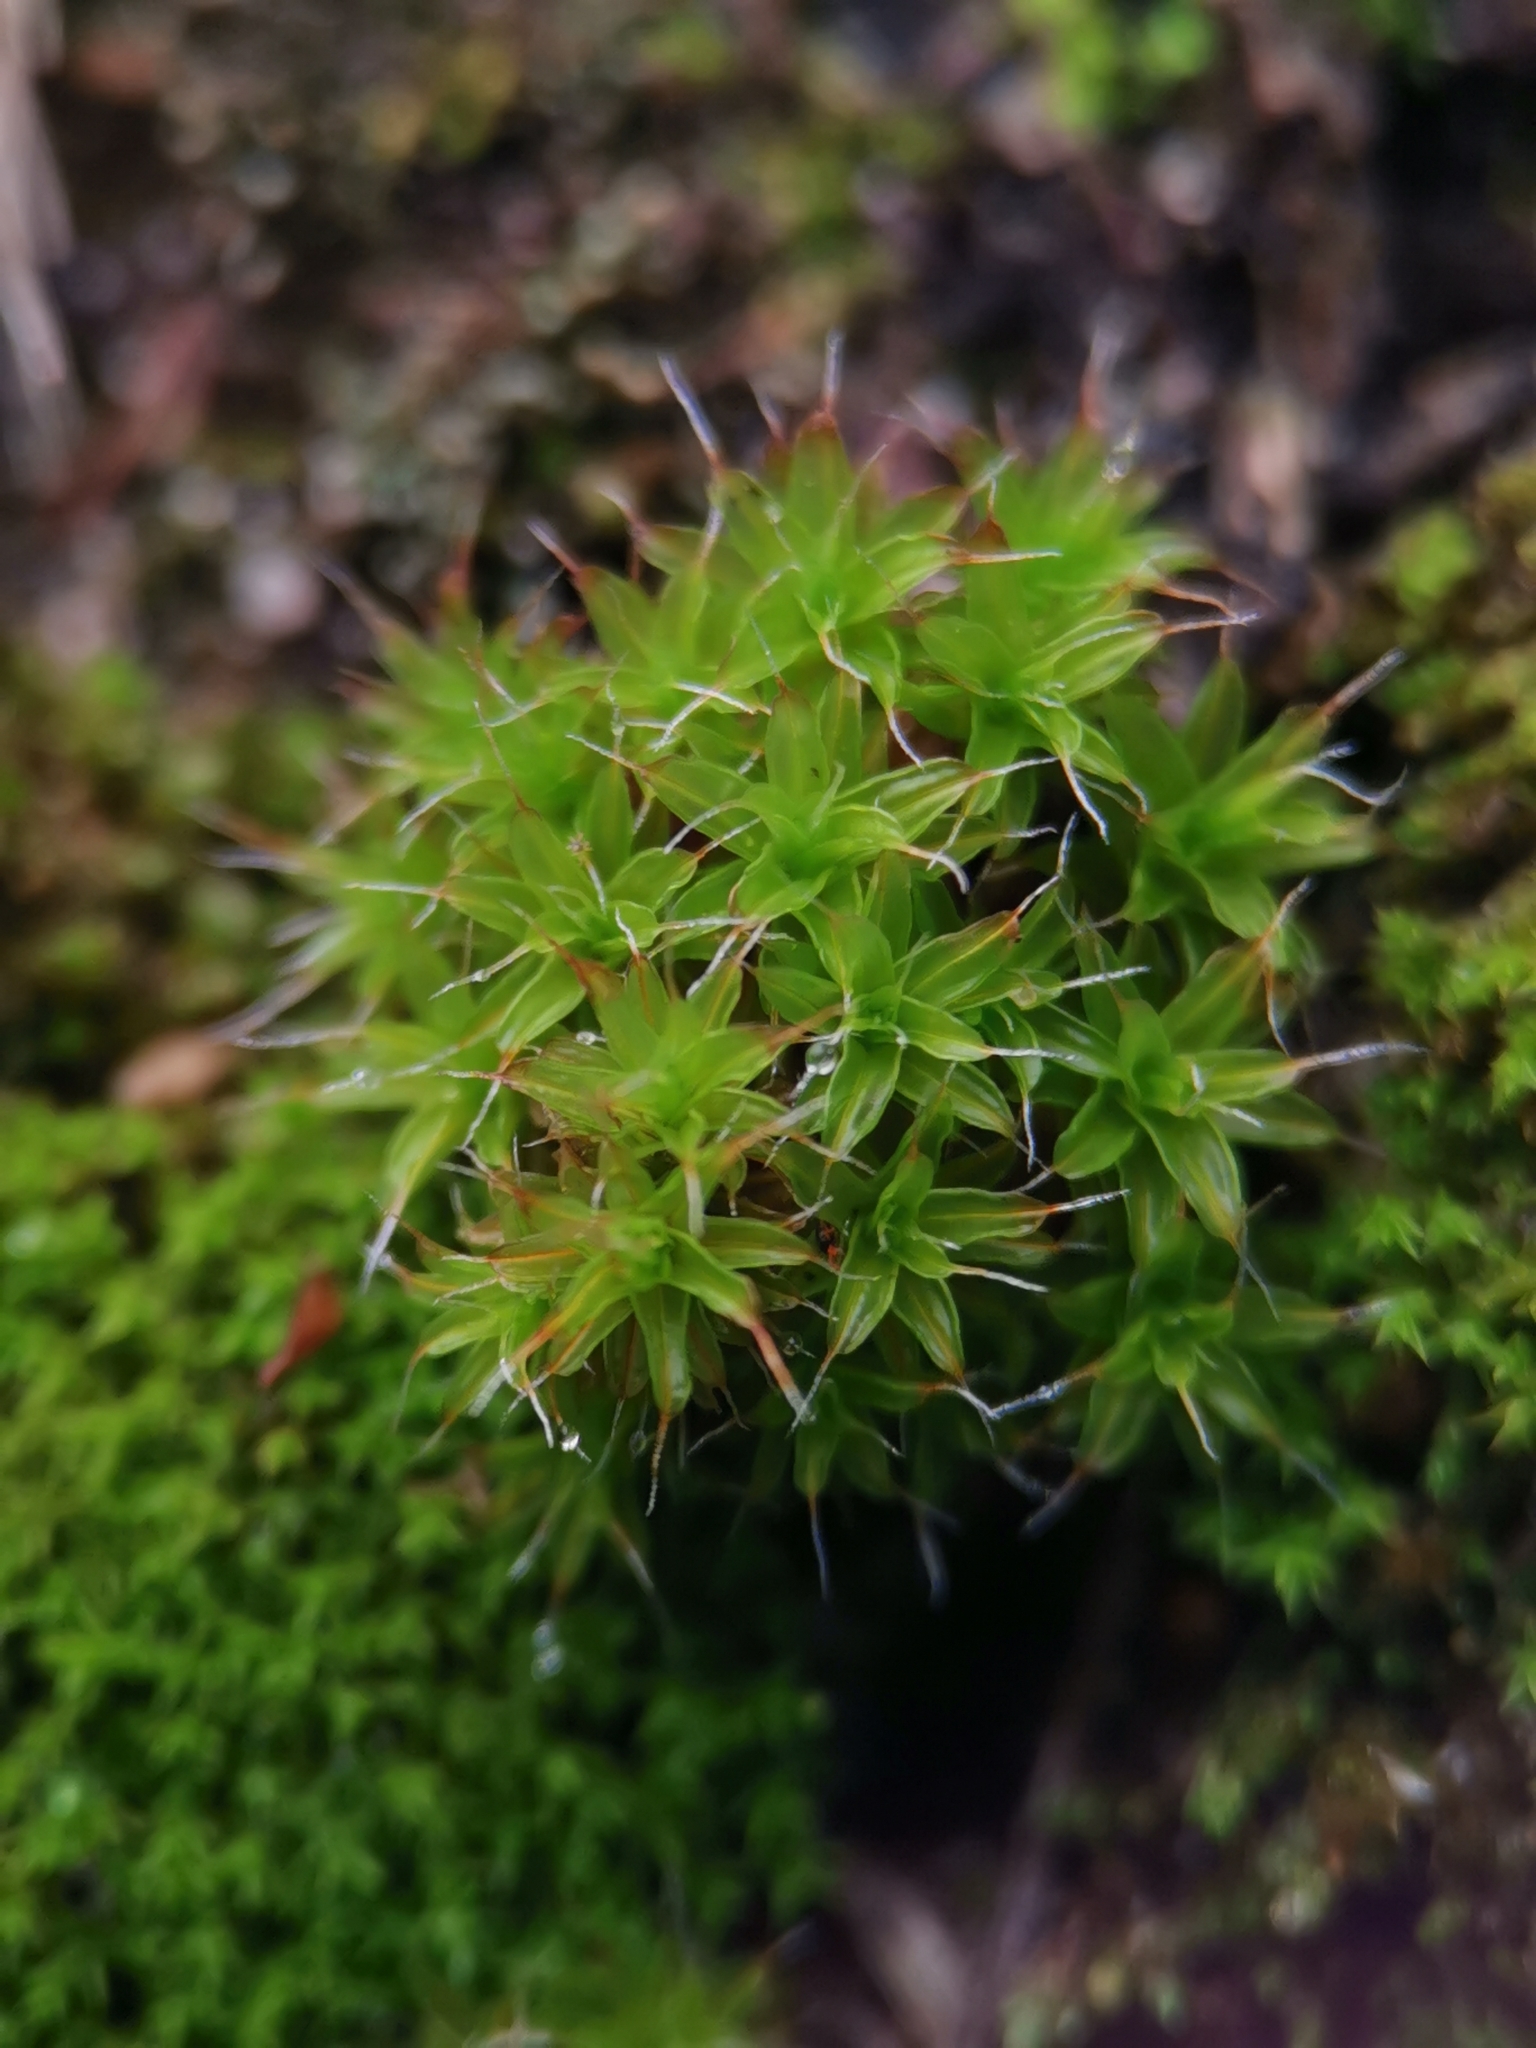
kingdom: Plantae
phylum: Bryophyta
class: Bryopsida
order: Pottiales
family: Pottiaceae
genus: Syntrichia
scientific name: Syntrichia ruralis
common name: Sidewalk screw moss
